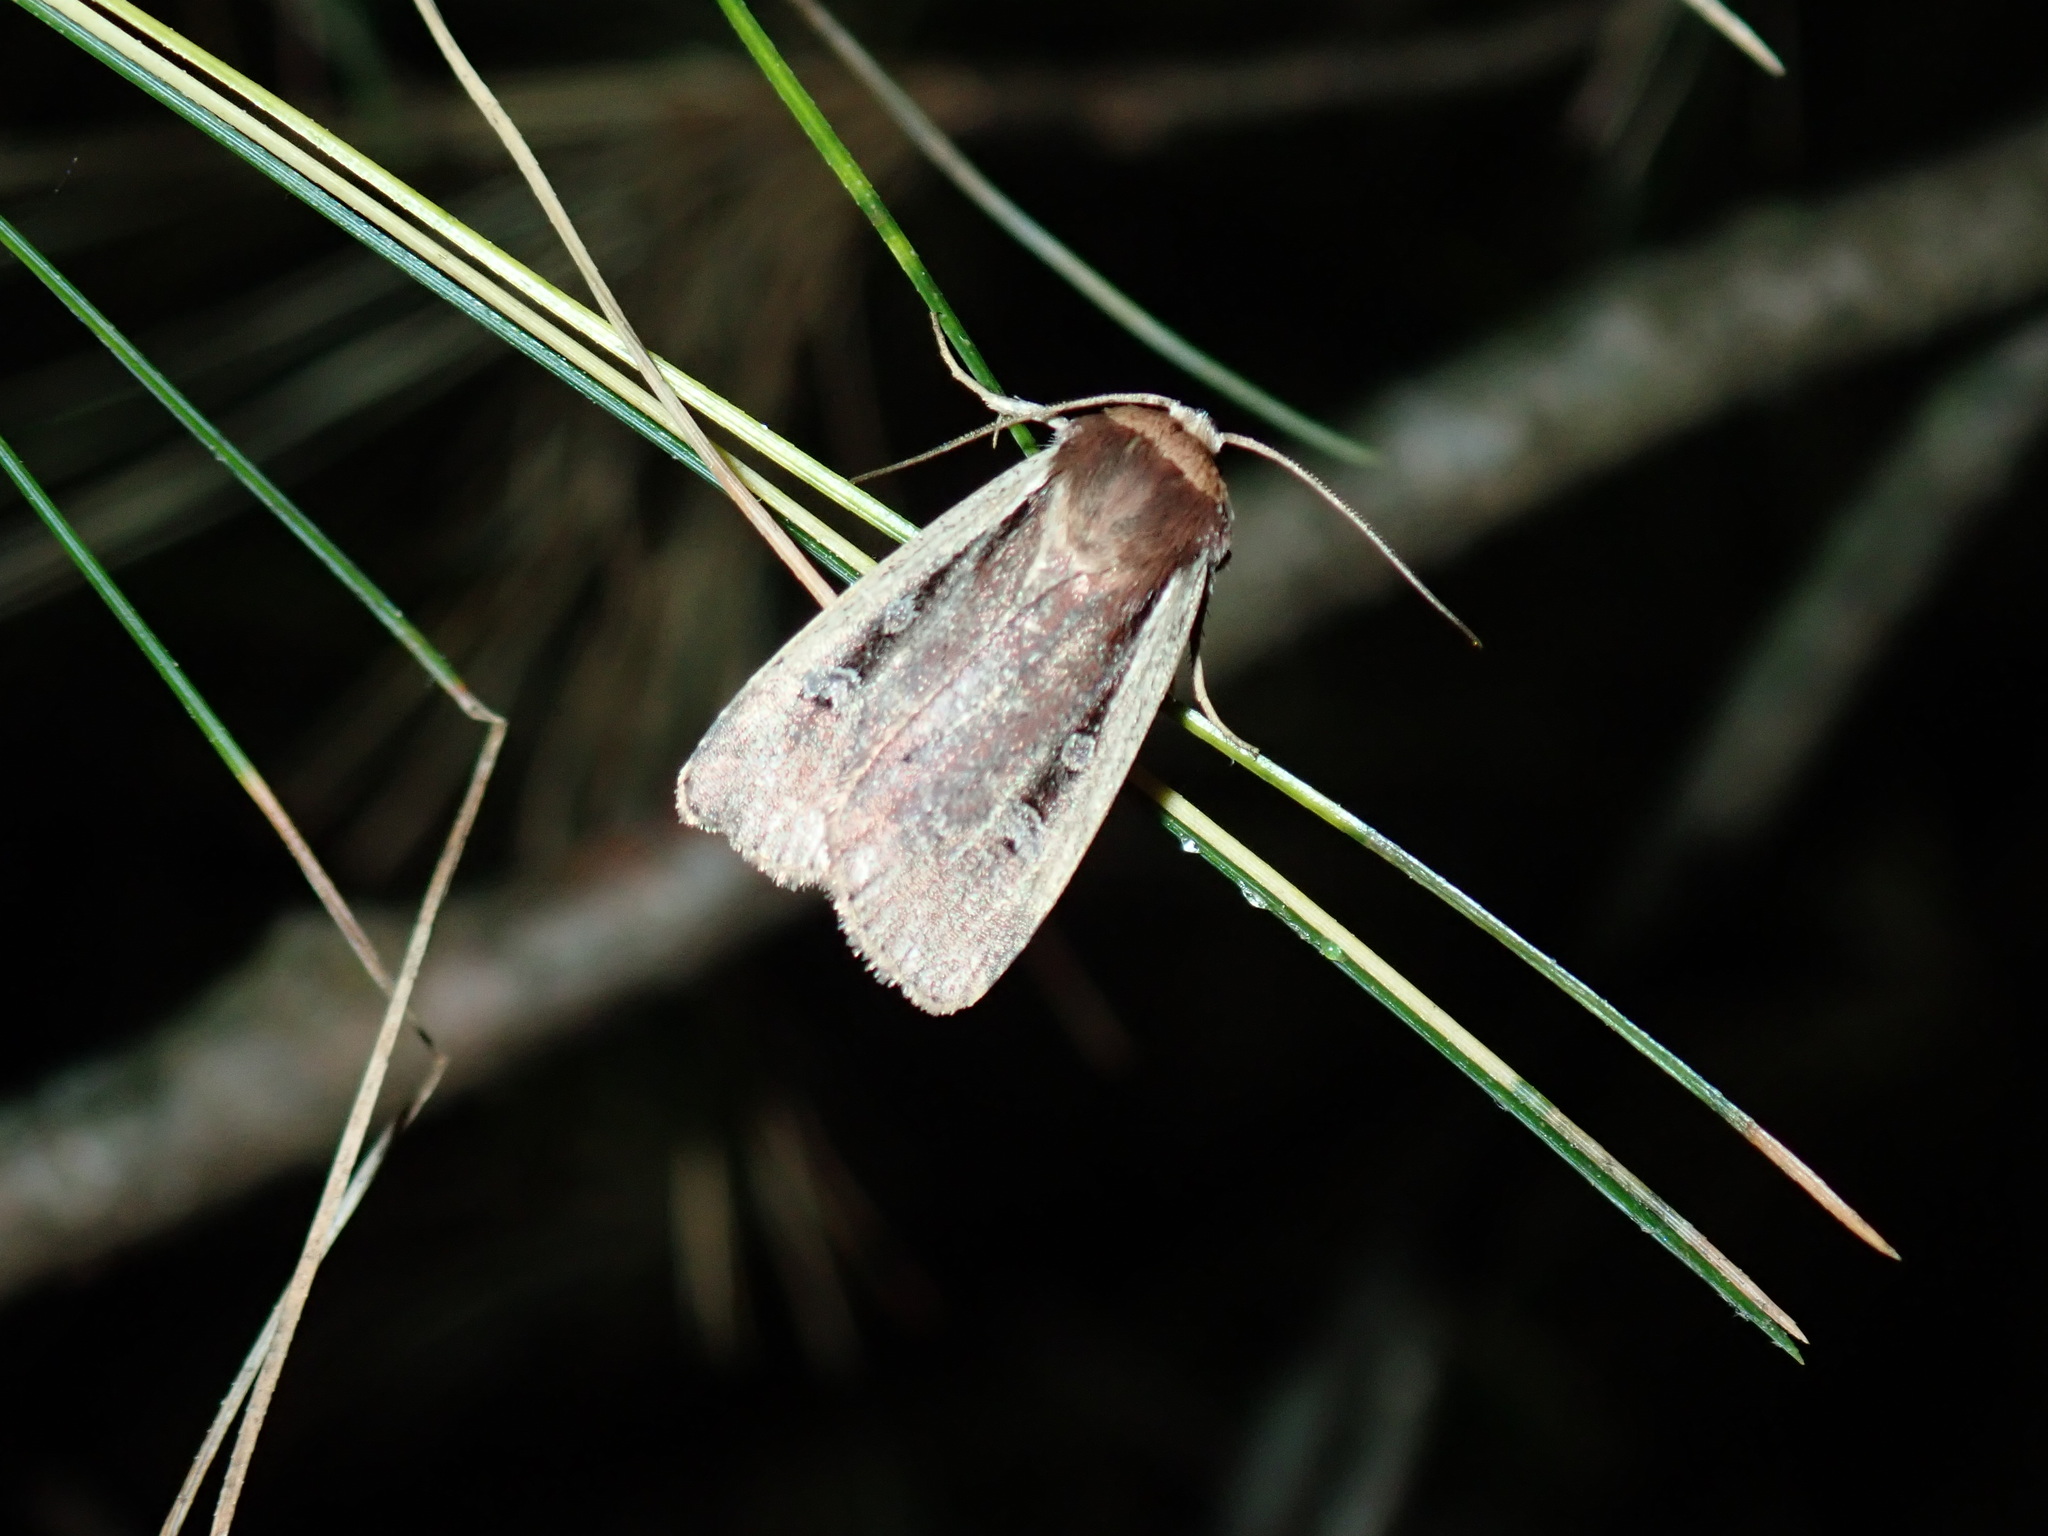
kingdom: Animalia
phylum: Arthropoda
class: Insecta
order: Lepidoptera
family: Noctuidae
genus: Ochropleura
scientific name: Ochropleura implecta
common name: Flame-shouldered dart
